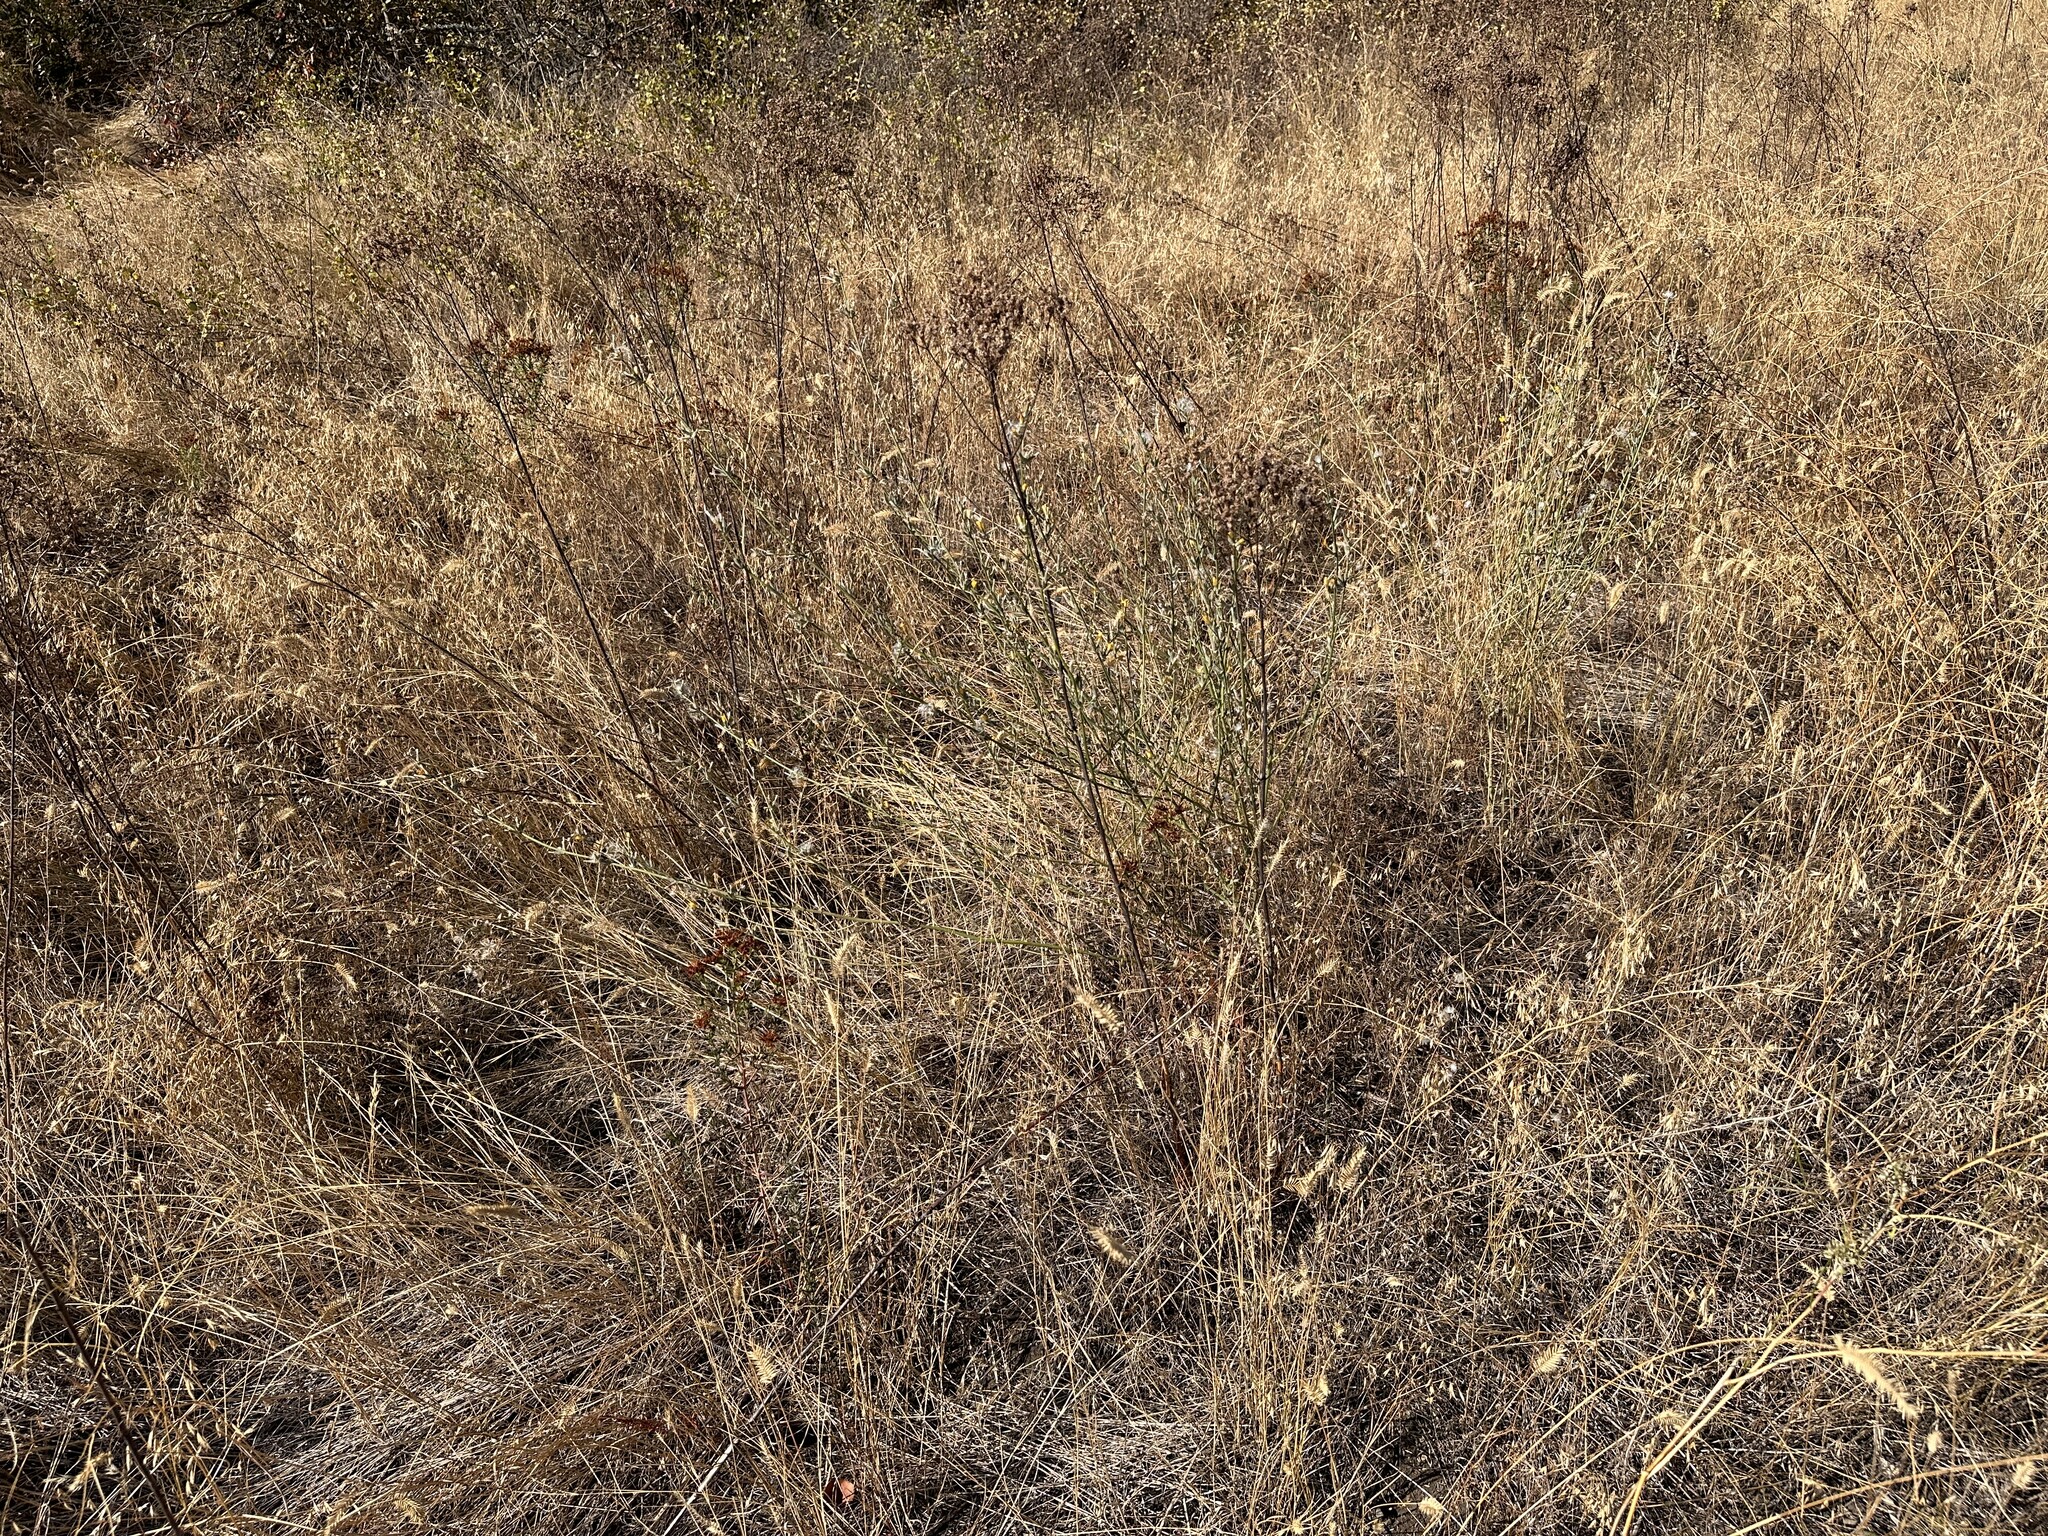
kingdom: Plantae
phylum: Tracheophyta
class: Magnoliopsida
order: Asterales
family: Asteraceae
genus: Chondrilla
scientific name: Chondrilla juncea
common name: Skeleton weed
